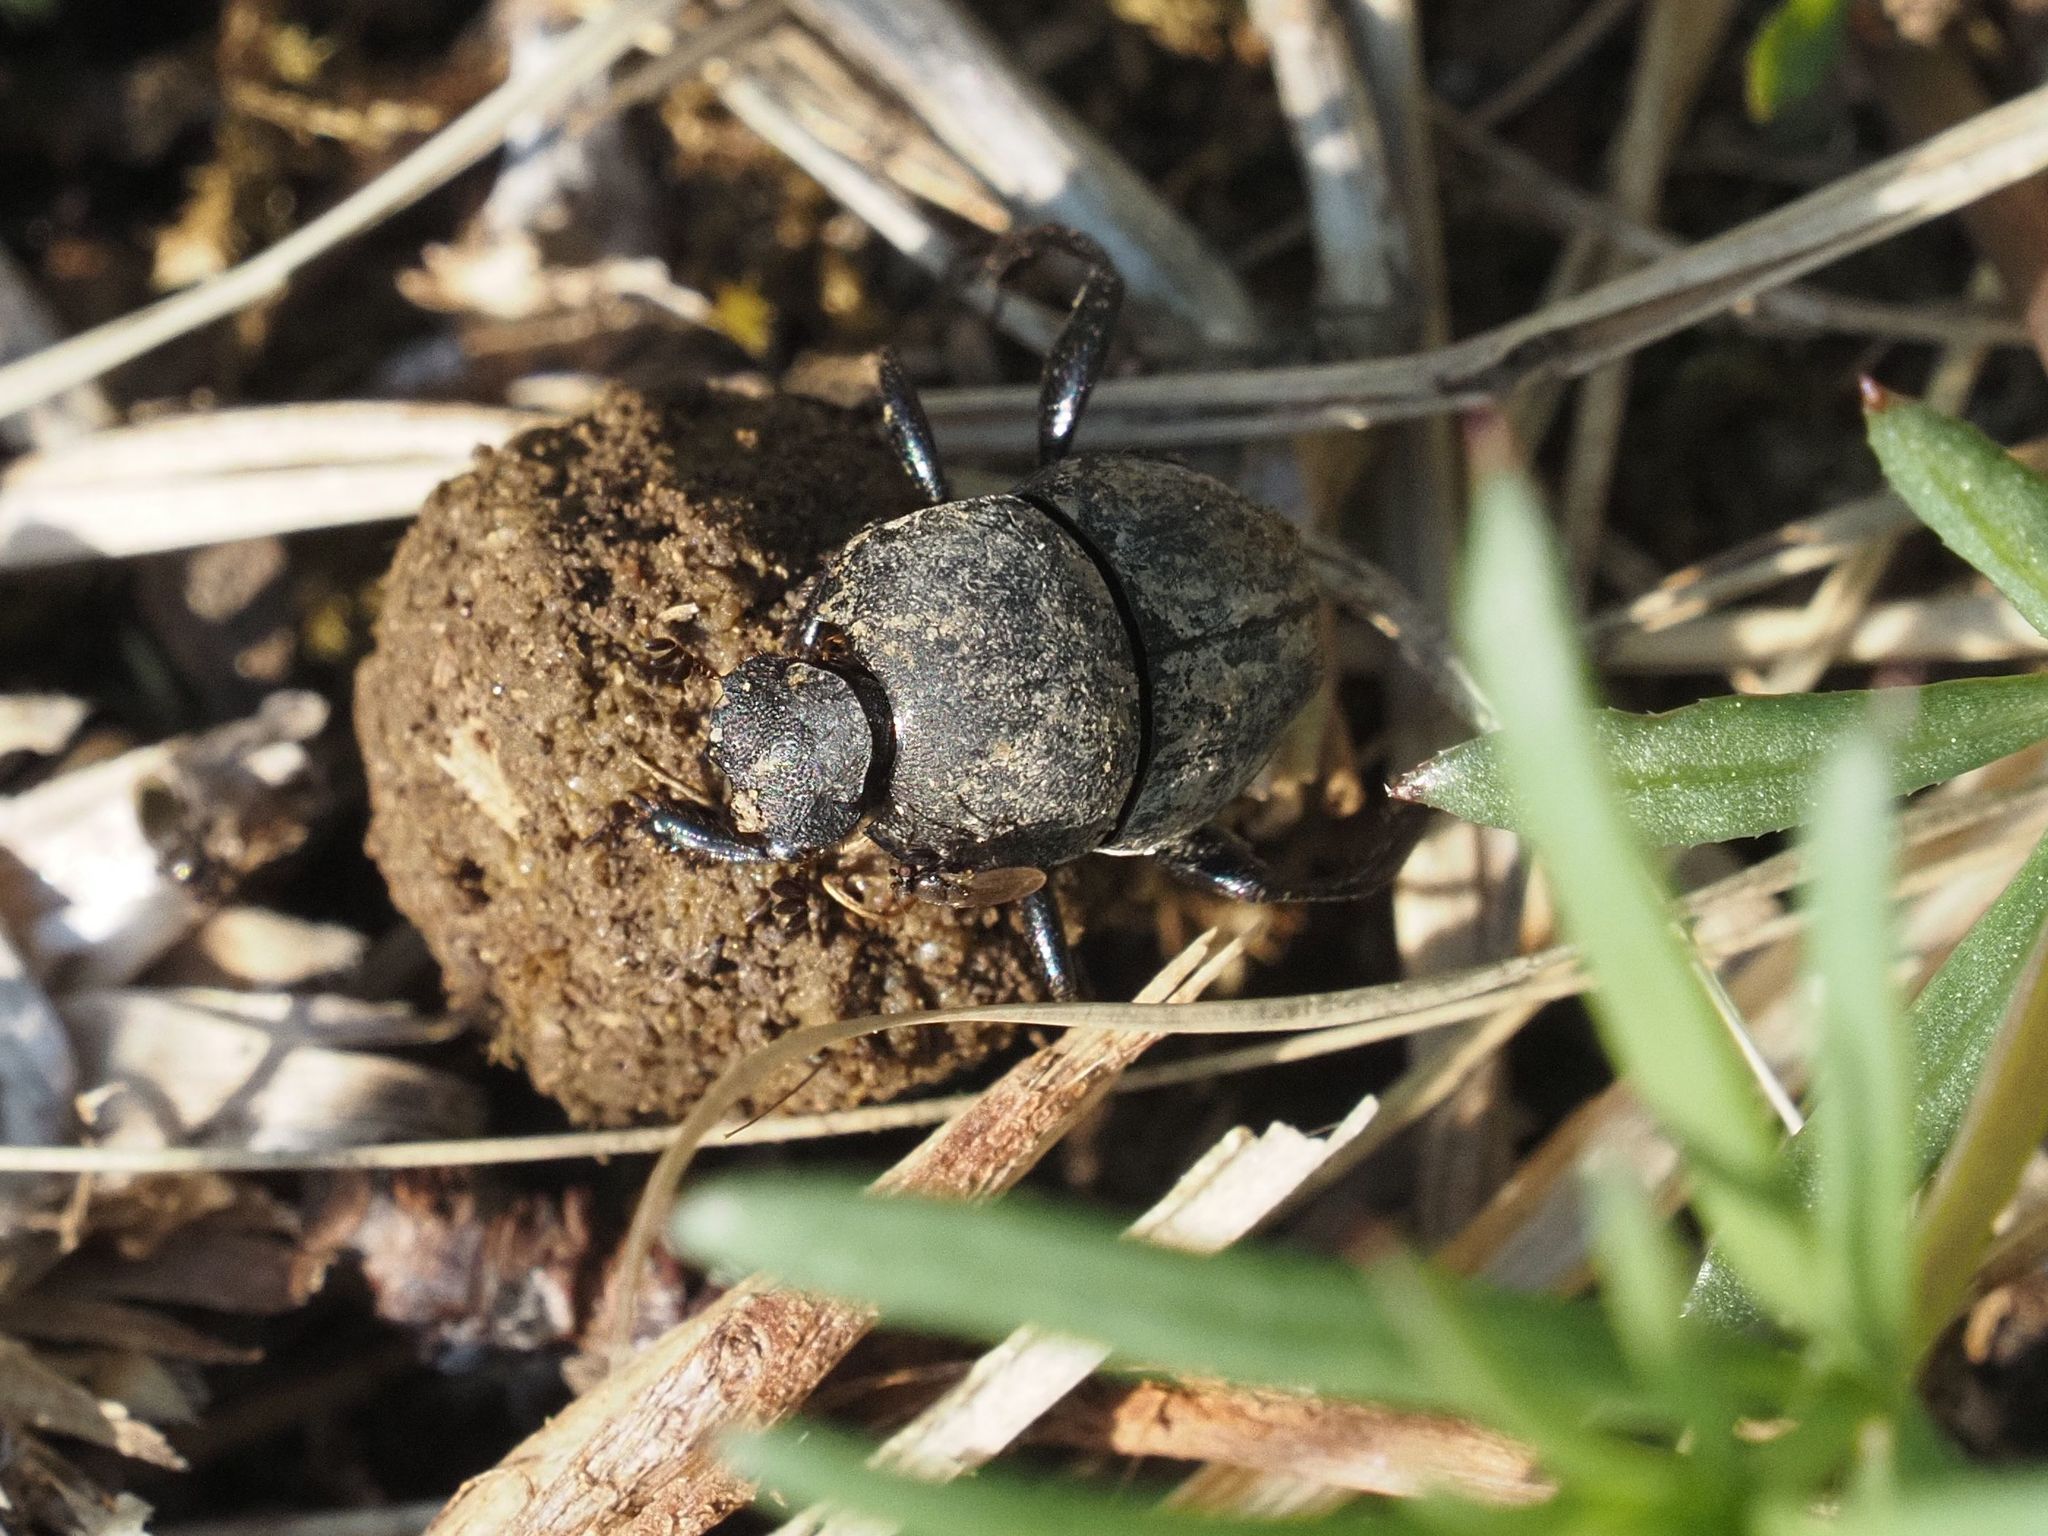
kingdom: Animalia
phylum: Arthropoda
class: Insecta
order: Coleoptera
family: Scarabaeidae
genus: Sisyphus
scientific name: Sisyphus schaefferi
